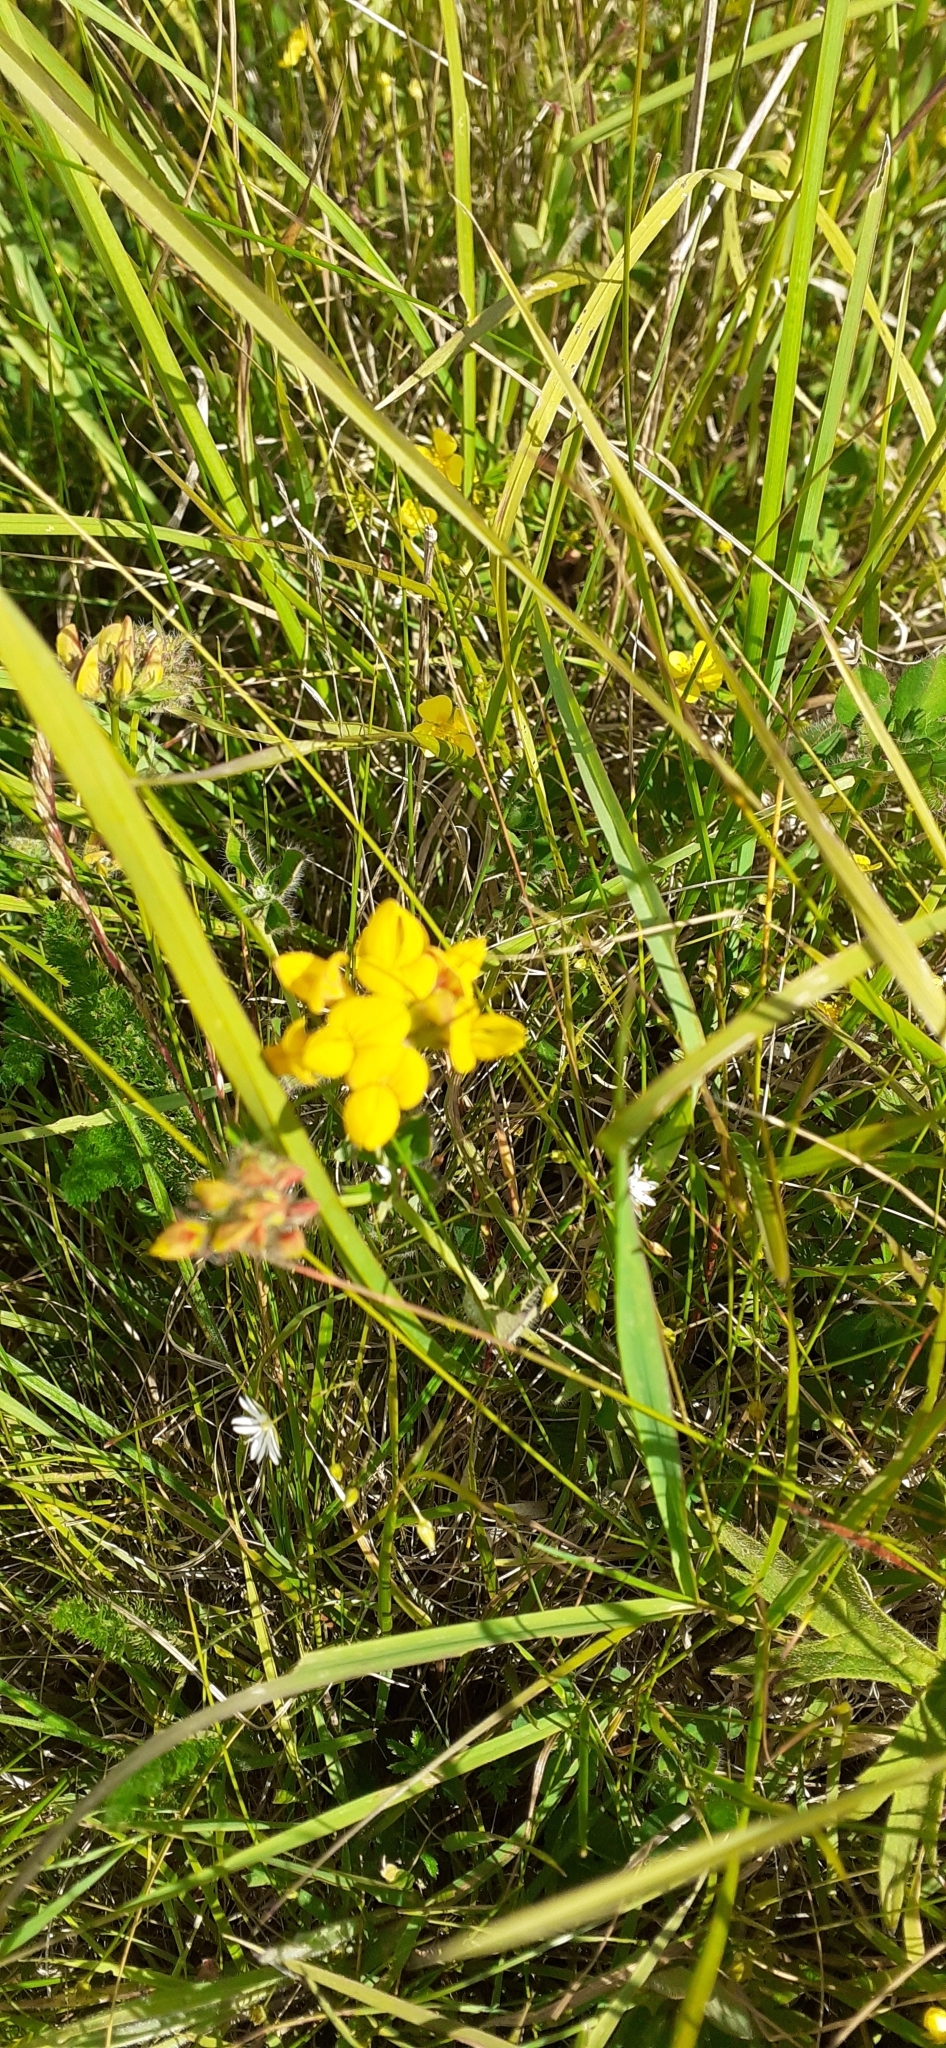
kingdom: Plantae
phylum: Tracheophyta
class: Magnoliopsida
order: Fabales
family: Fabaceae
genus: Lotus
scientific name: Lotus corniculatus
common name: Common bird's-foot-trefoil
